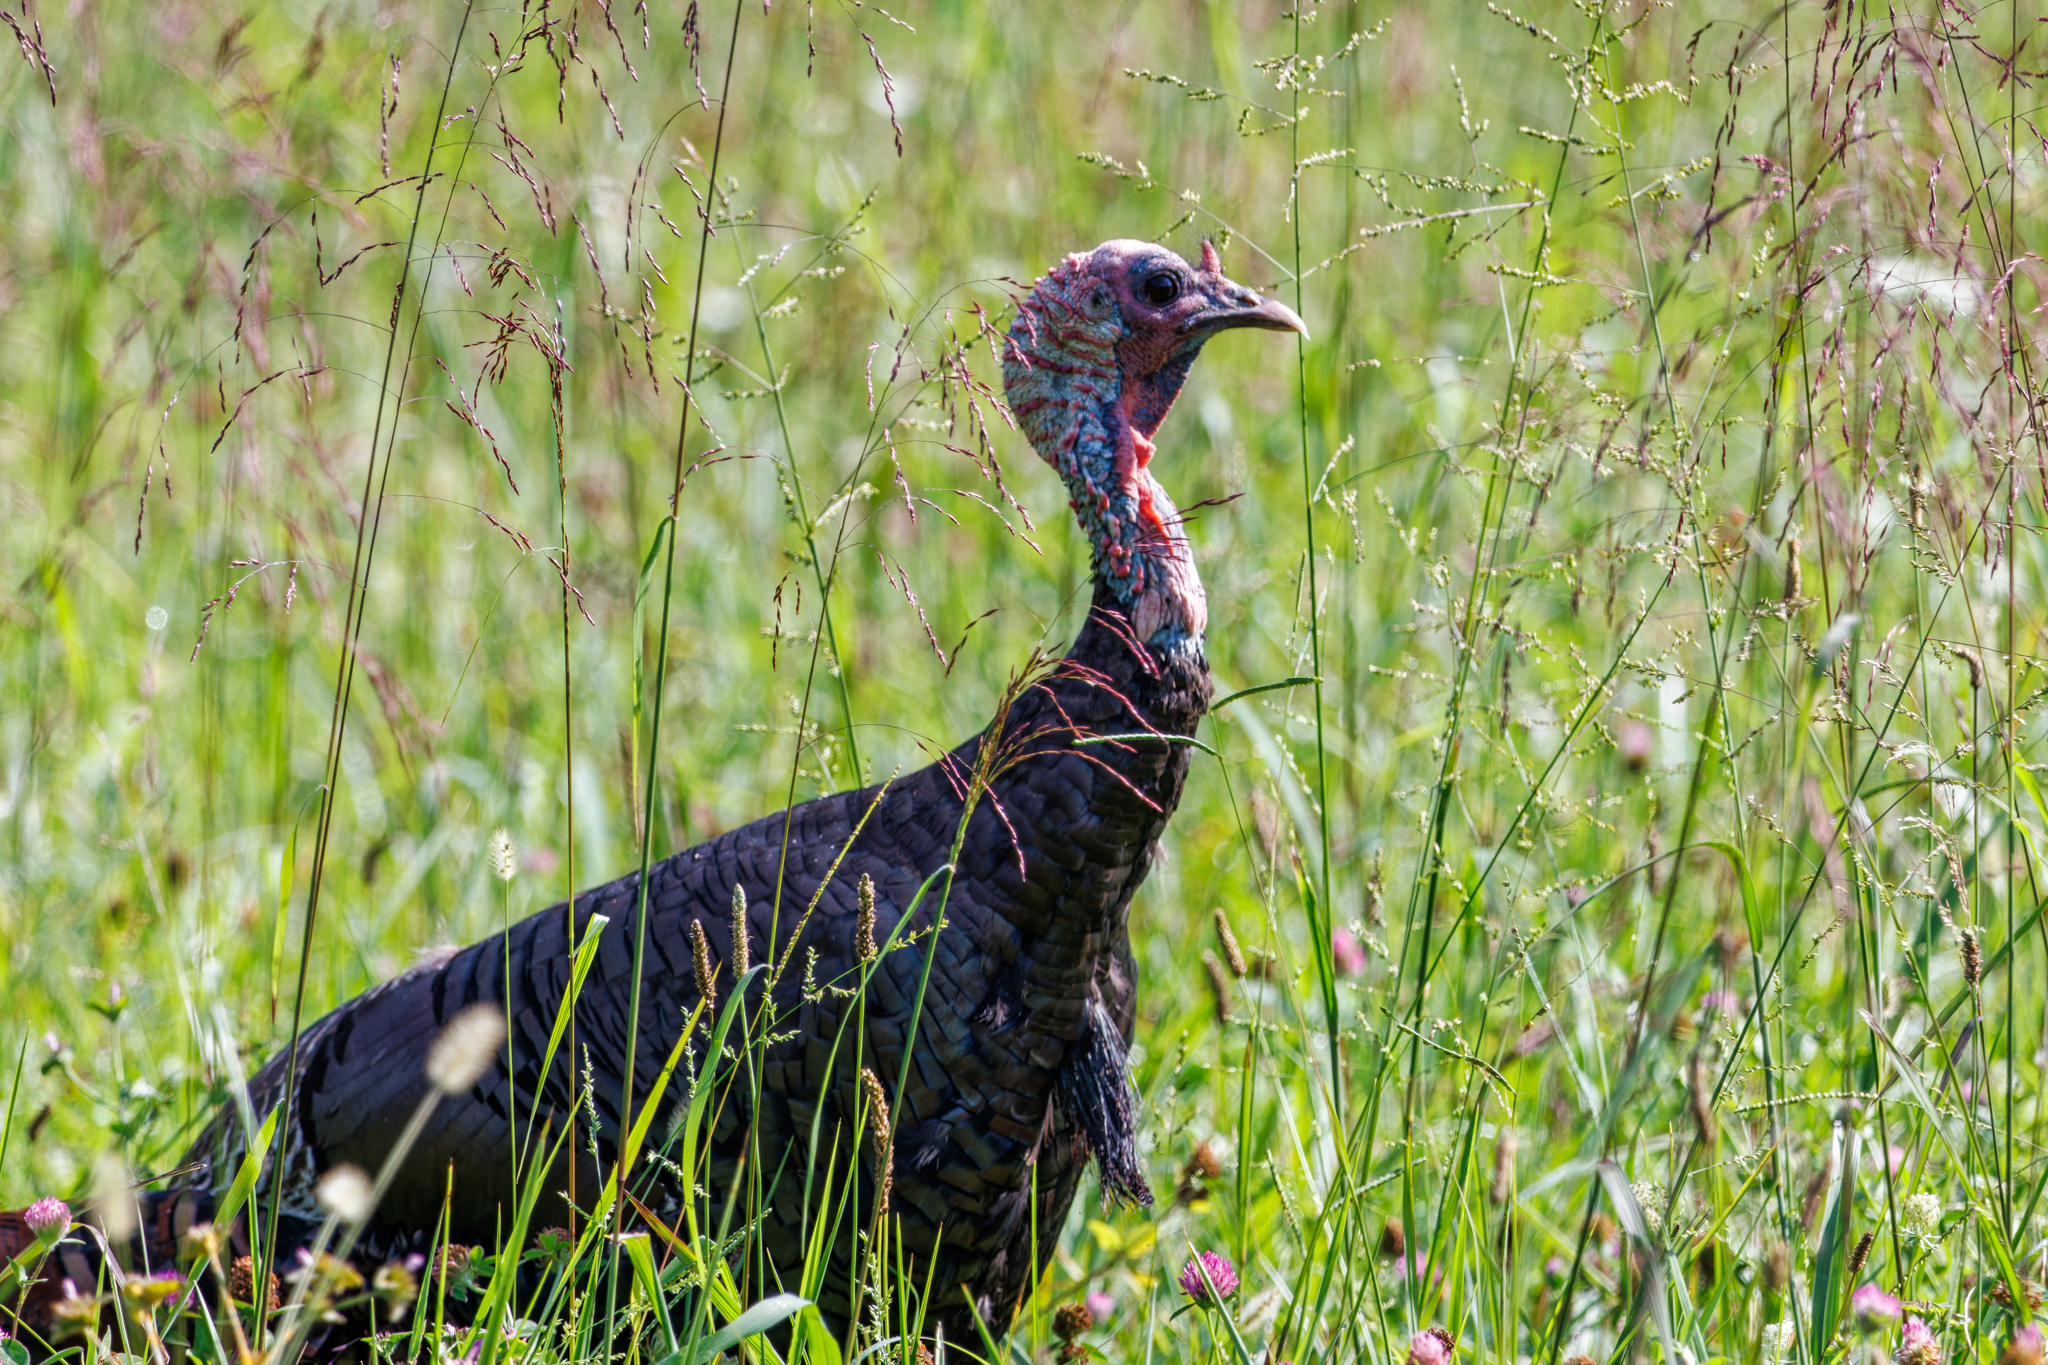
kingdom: Animalia
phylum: Chordata
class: Aves
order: Galliformes
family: Phasianidae
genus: Meleagris
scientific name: Meleagris gallopavo
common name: Wild turkey
